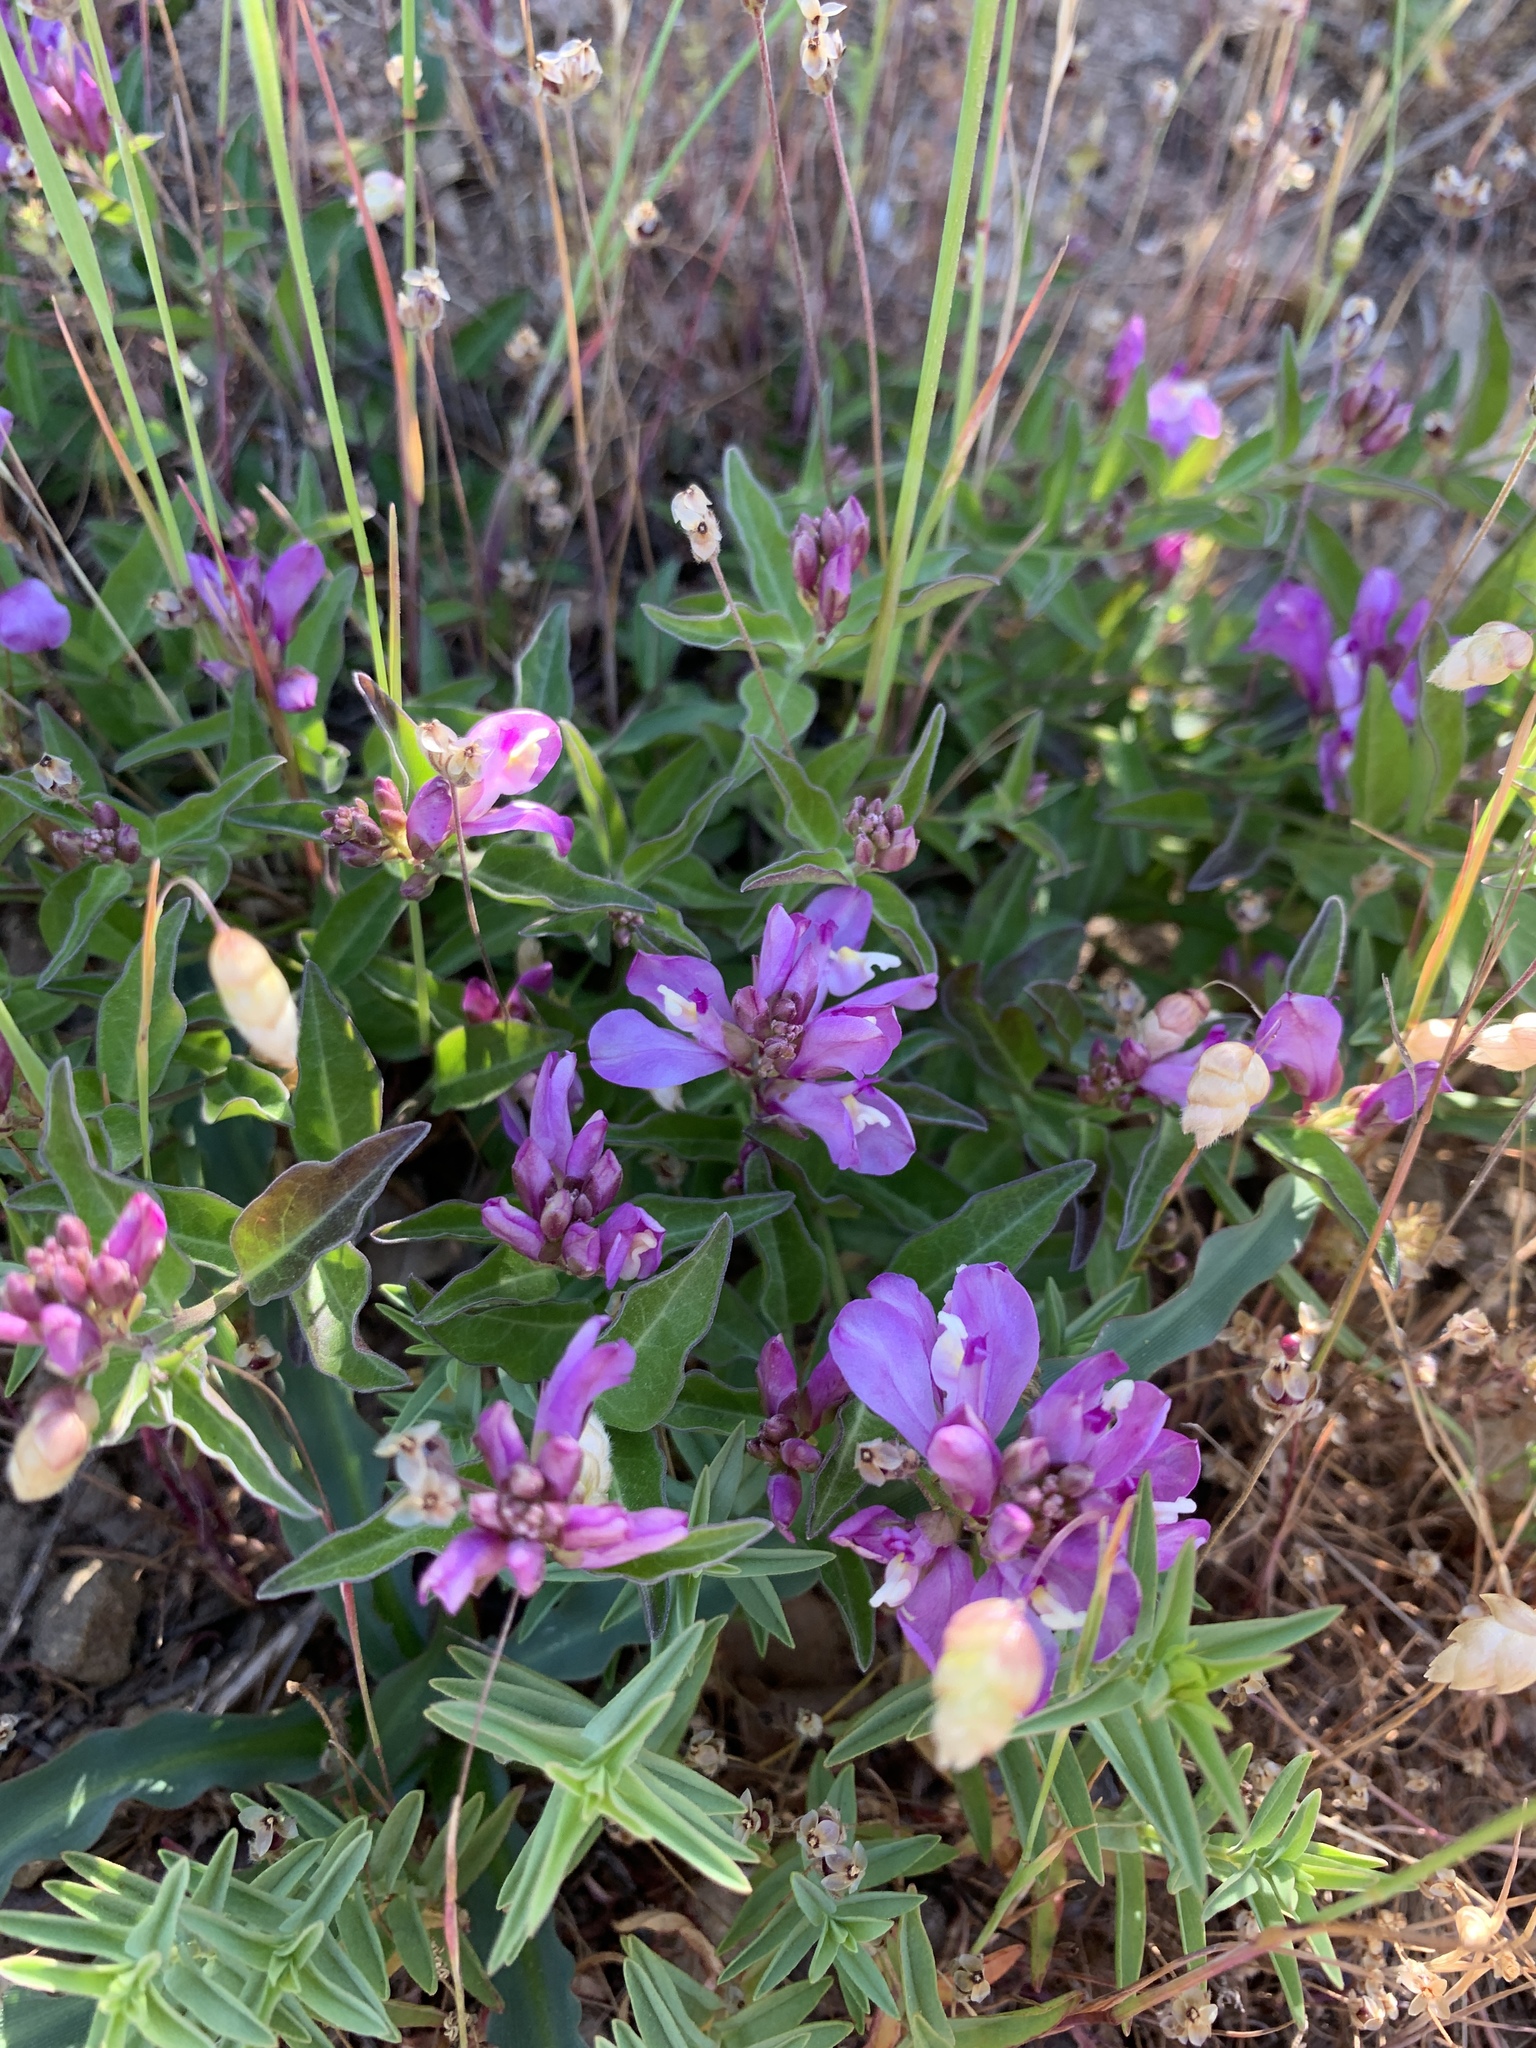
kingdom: Plantae
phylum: Tracheophyta
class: Magnoliopsida
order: Fabales
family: Polygalaceae
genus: Rhinotropis
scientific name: Rhinotropis californica
